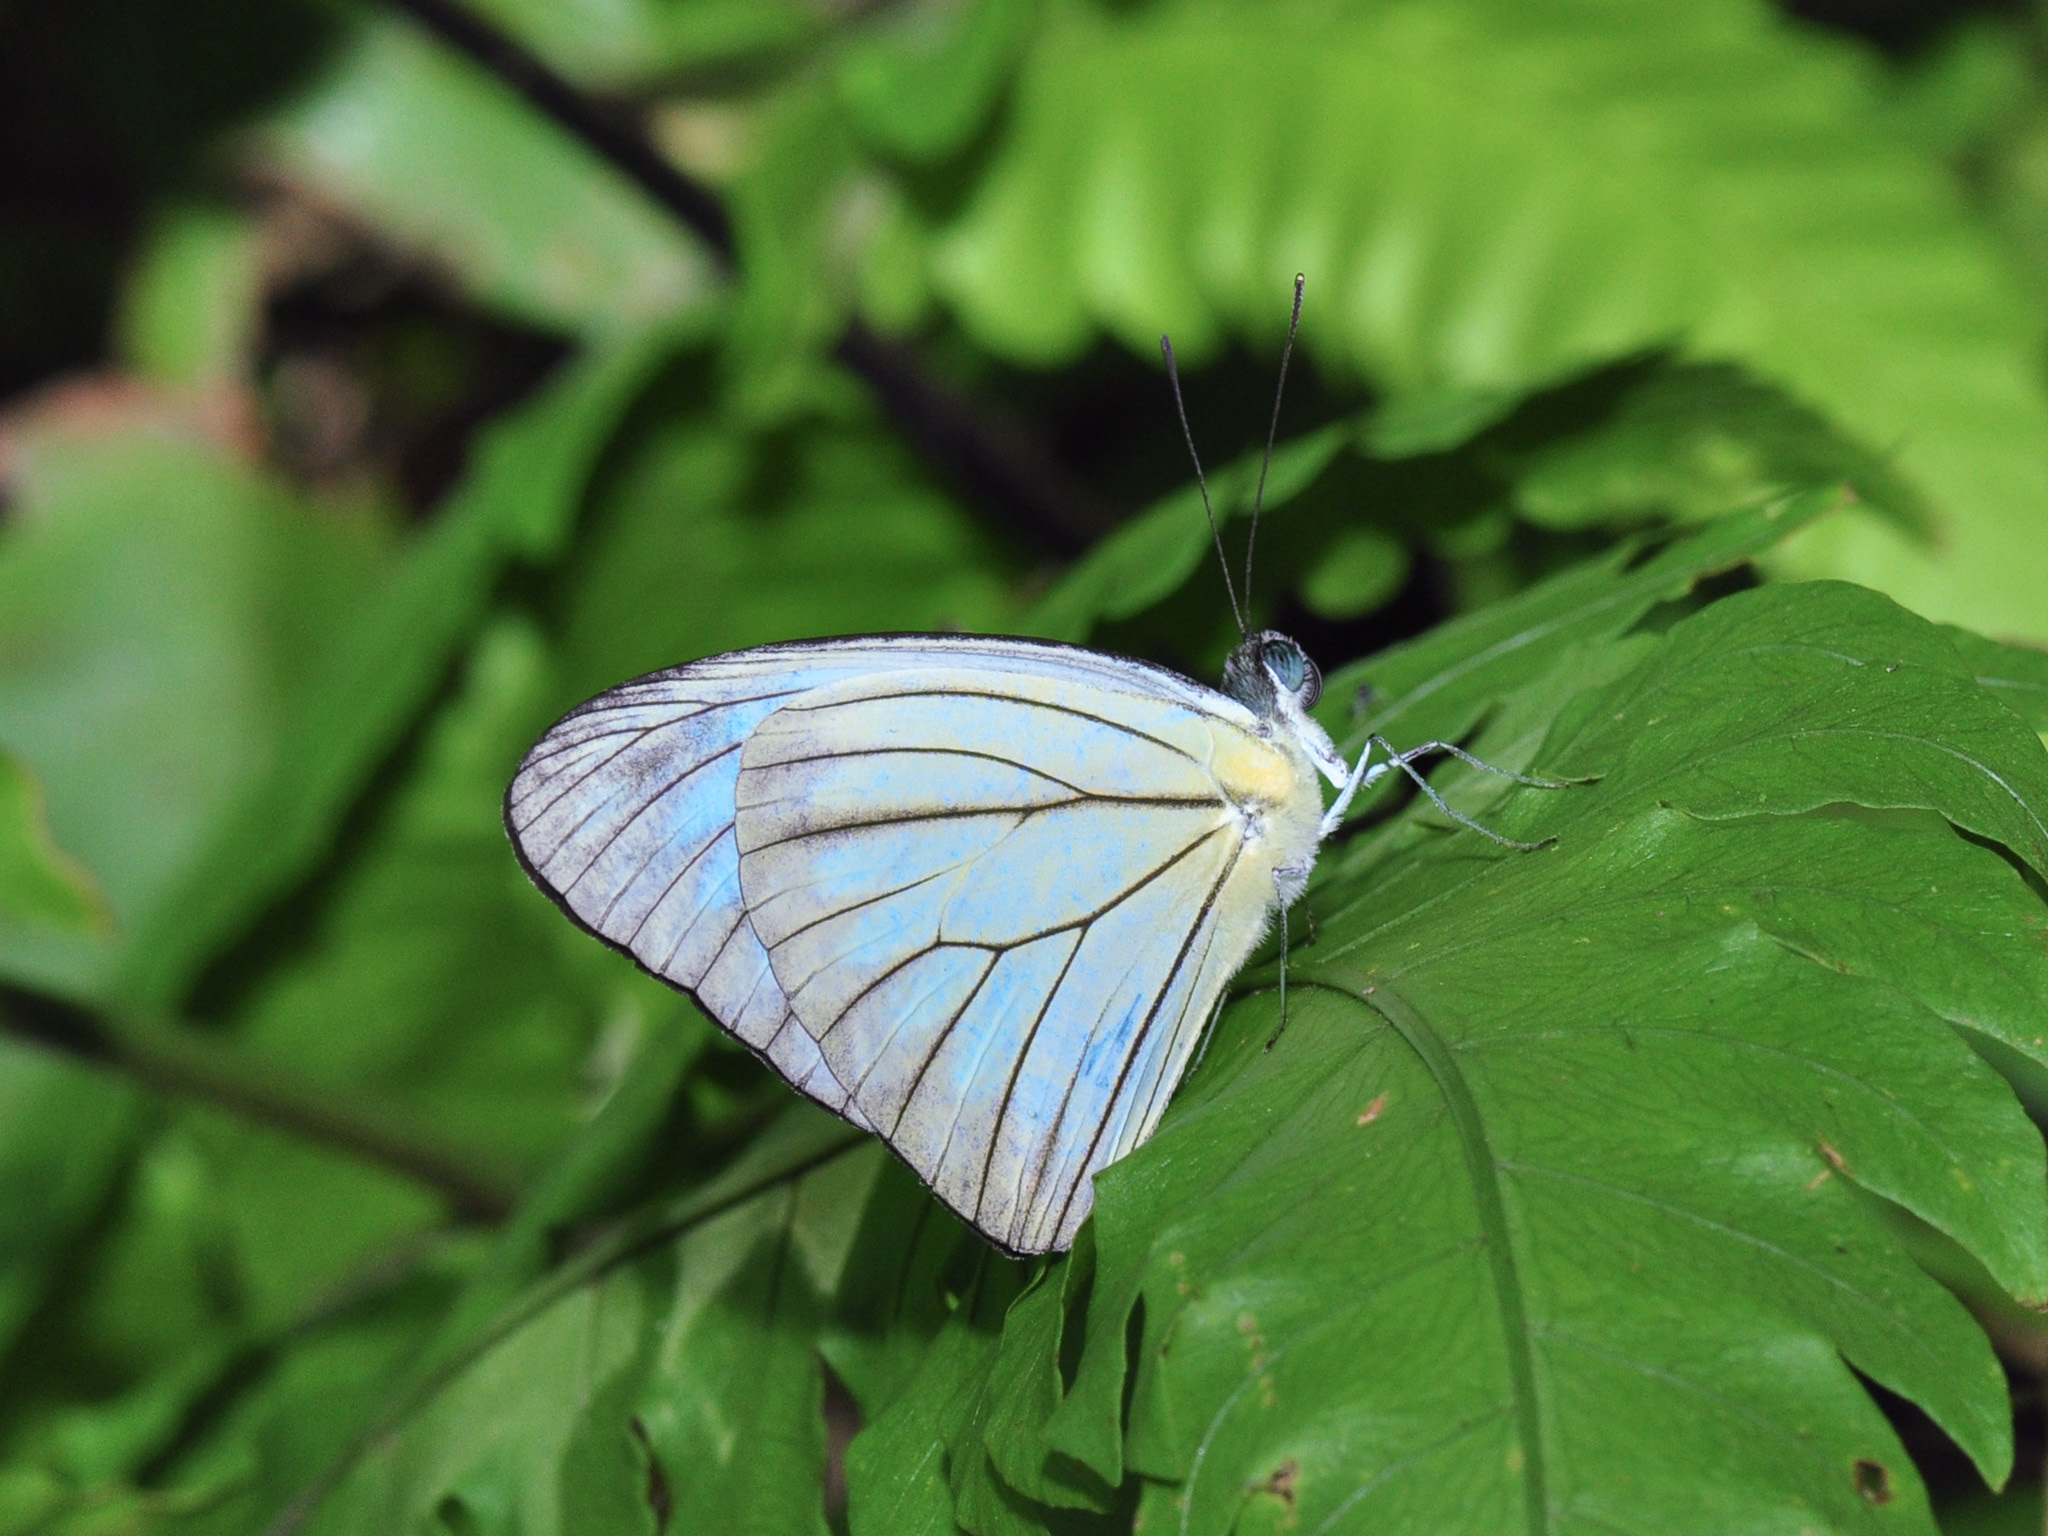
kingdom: Animalia
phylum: Arthropoda
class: Insecta
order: Lepidoptera
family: Pieridae
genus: Pareronia
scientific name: Pareronia valeria
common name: Common wanderer?
